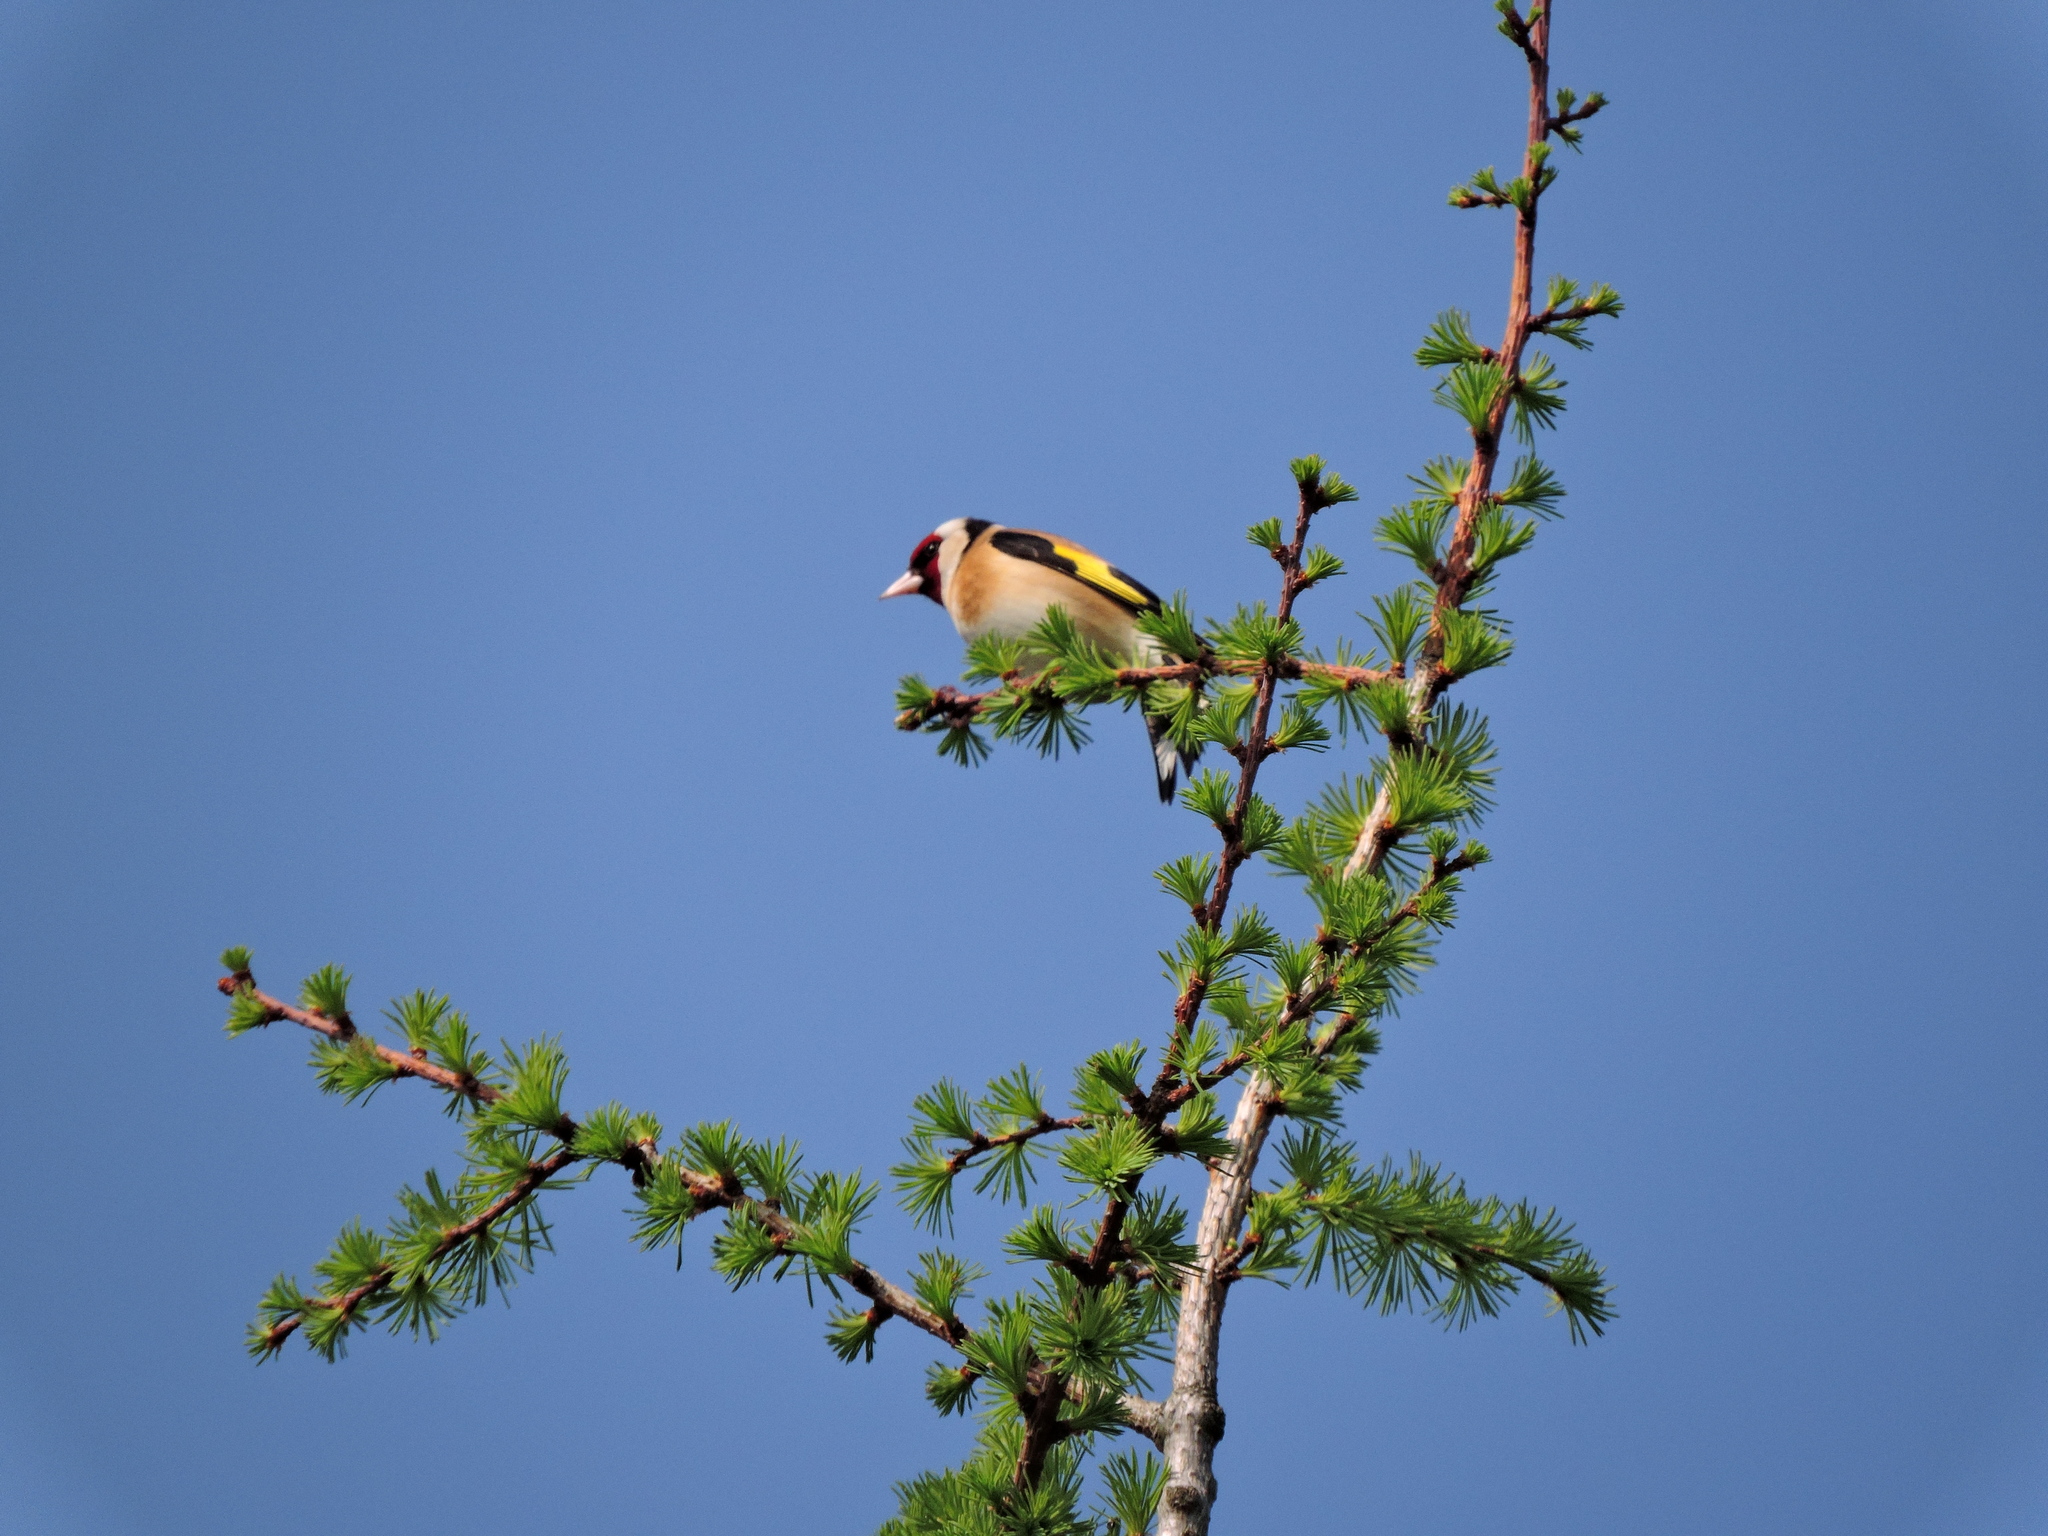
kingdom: Animalia
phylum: Chordata
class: Aves
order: Passeriformes
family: Fringillidae
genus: Carduelis
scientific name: Carduelis carduelis
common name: European goldfinch
